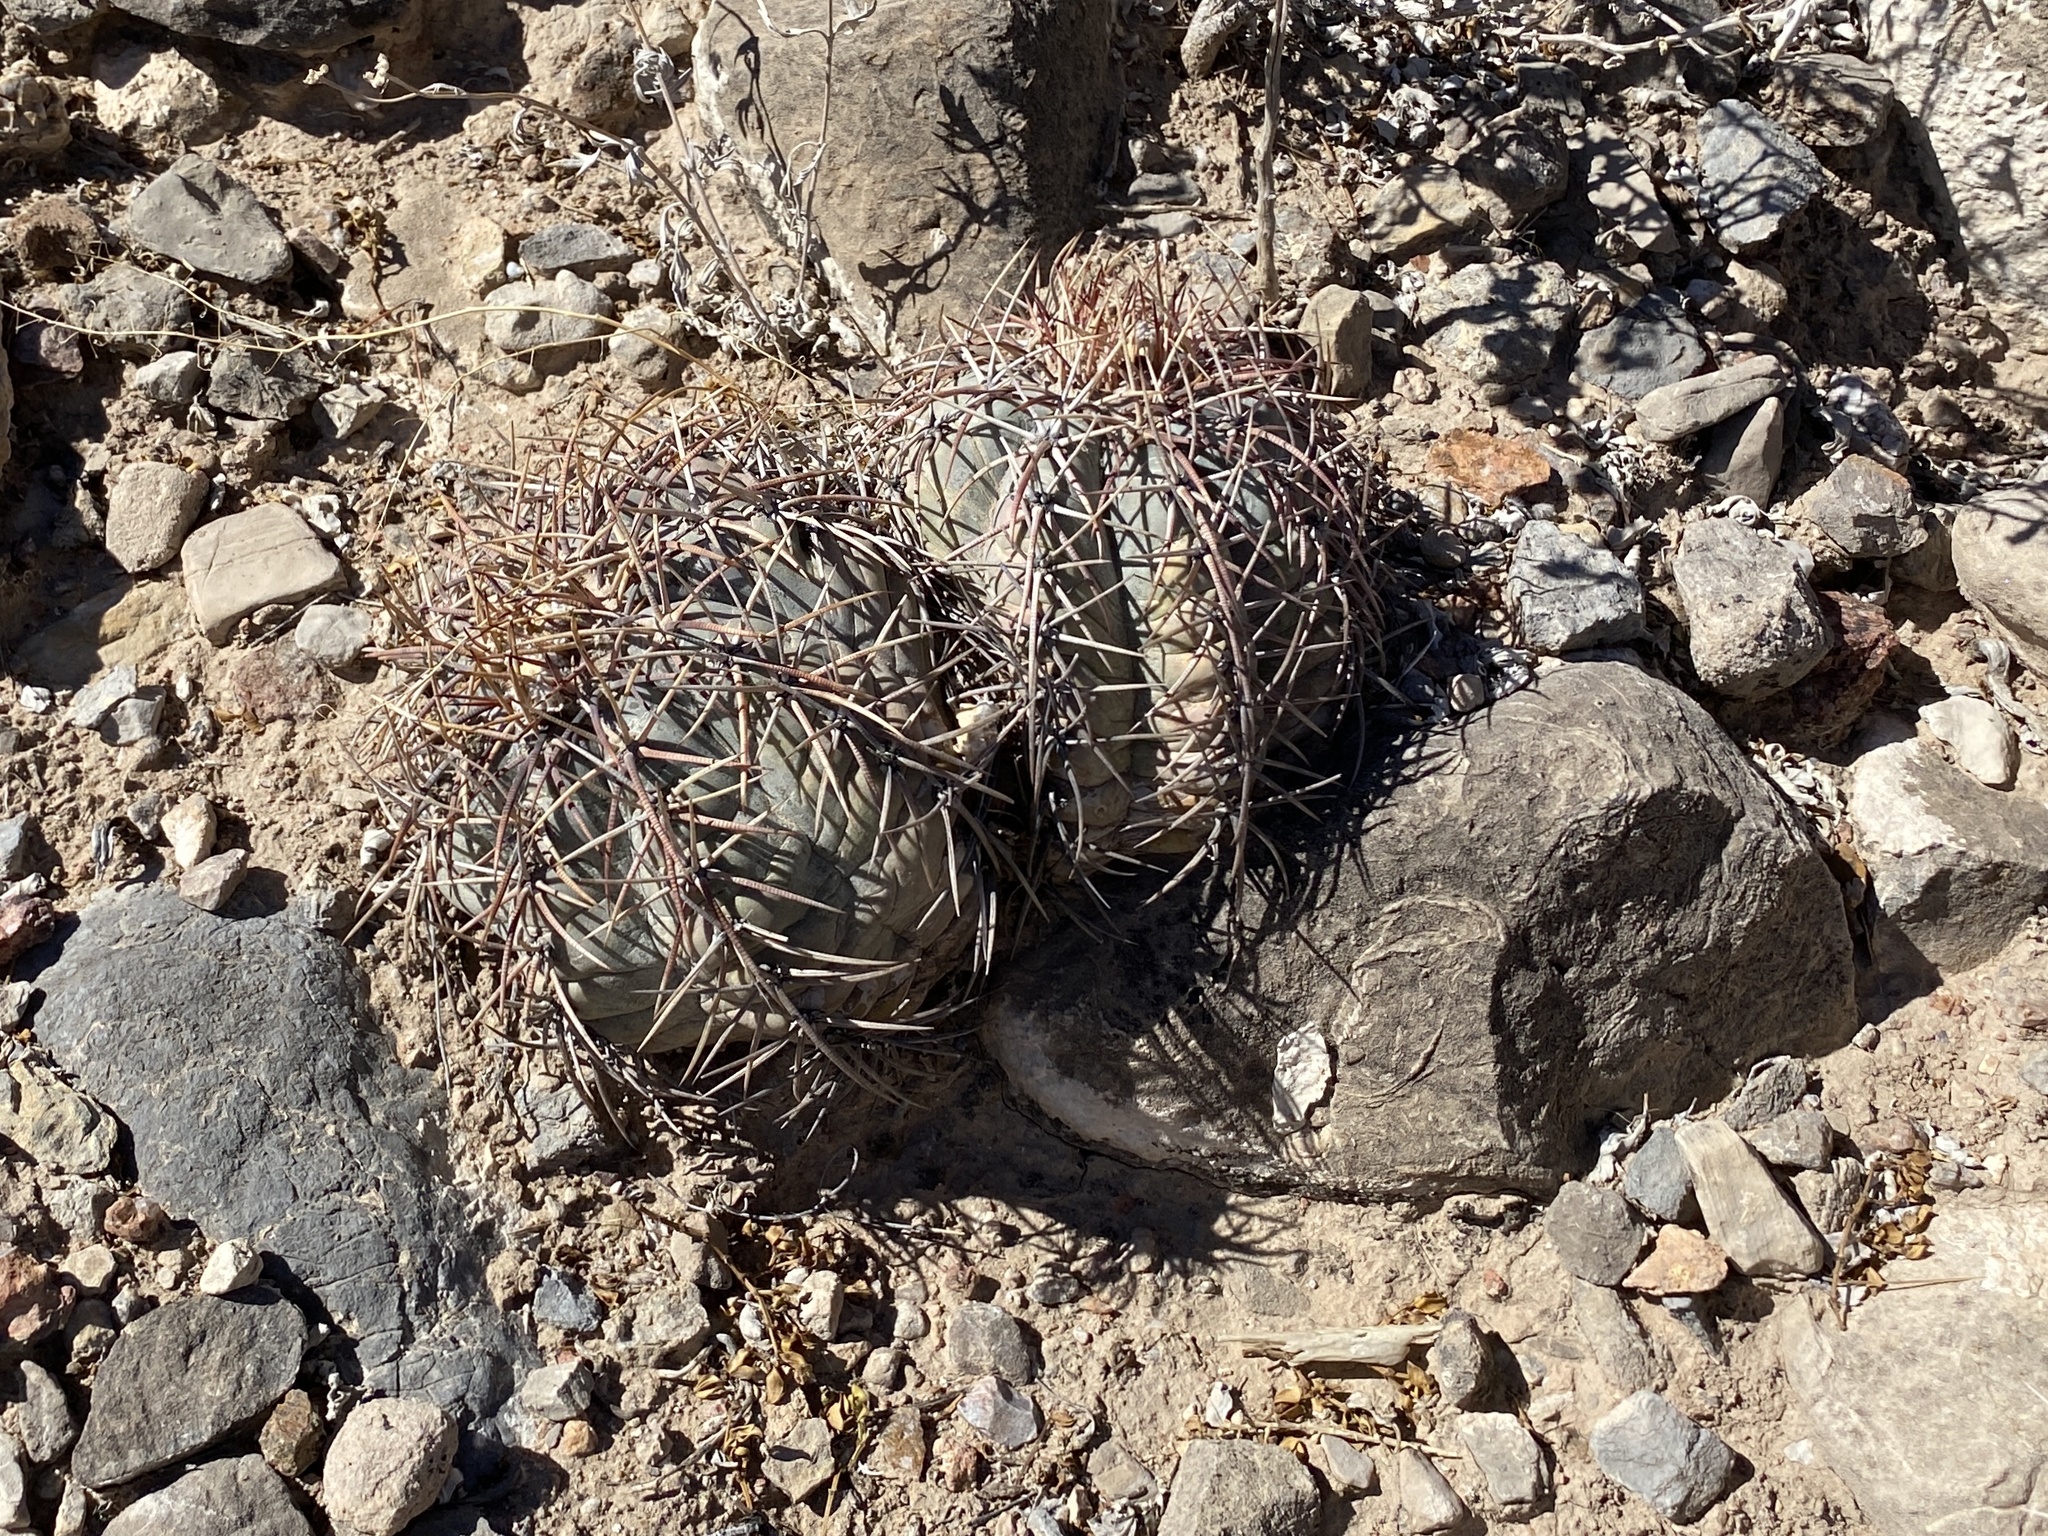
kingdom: Plantae
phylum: Tracheophyta
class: Magnoliopsida
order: Caryophyllales
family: Cactaceae
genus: Echinocactus
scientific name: Echinocactus horizonthalonius
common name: Devilshead
